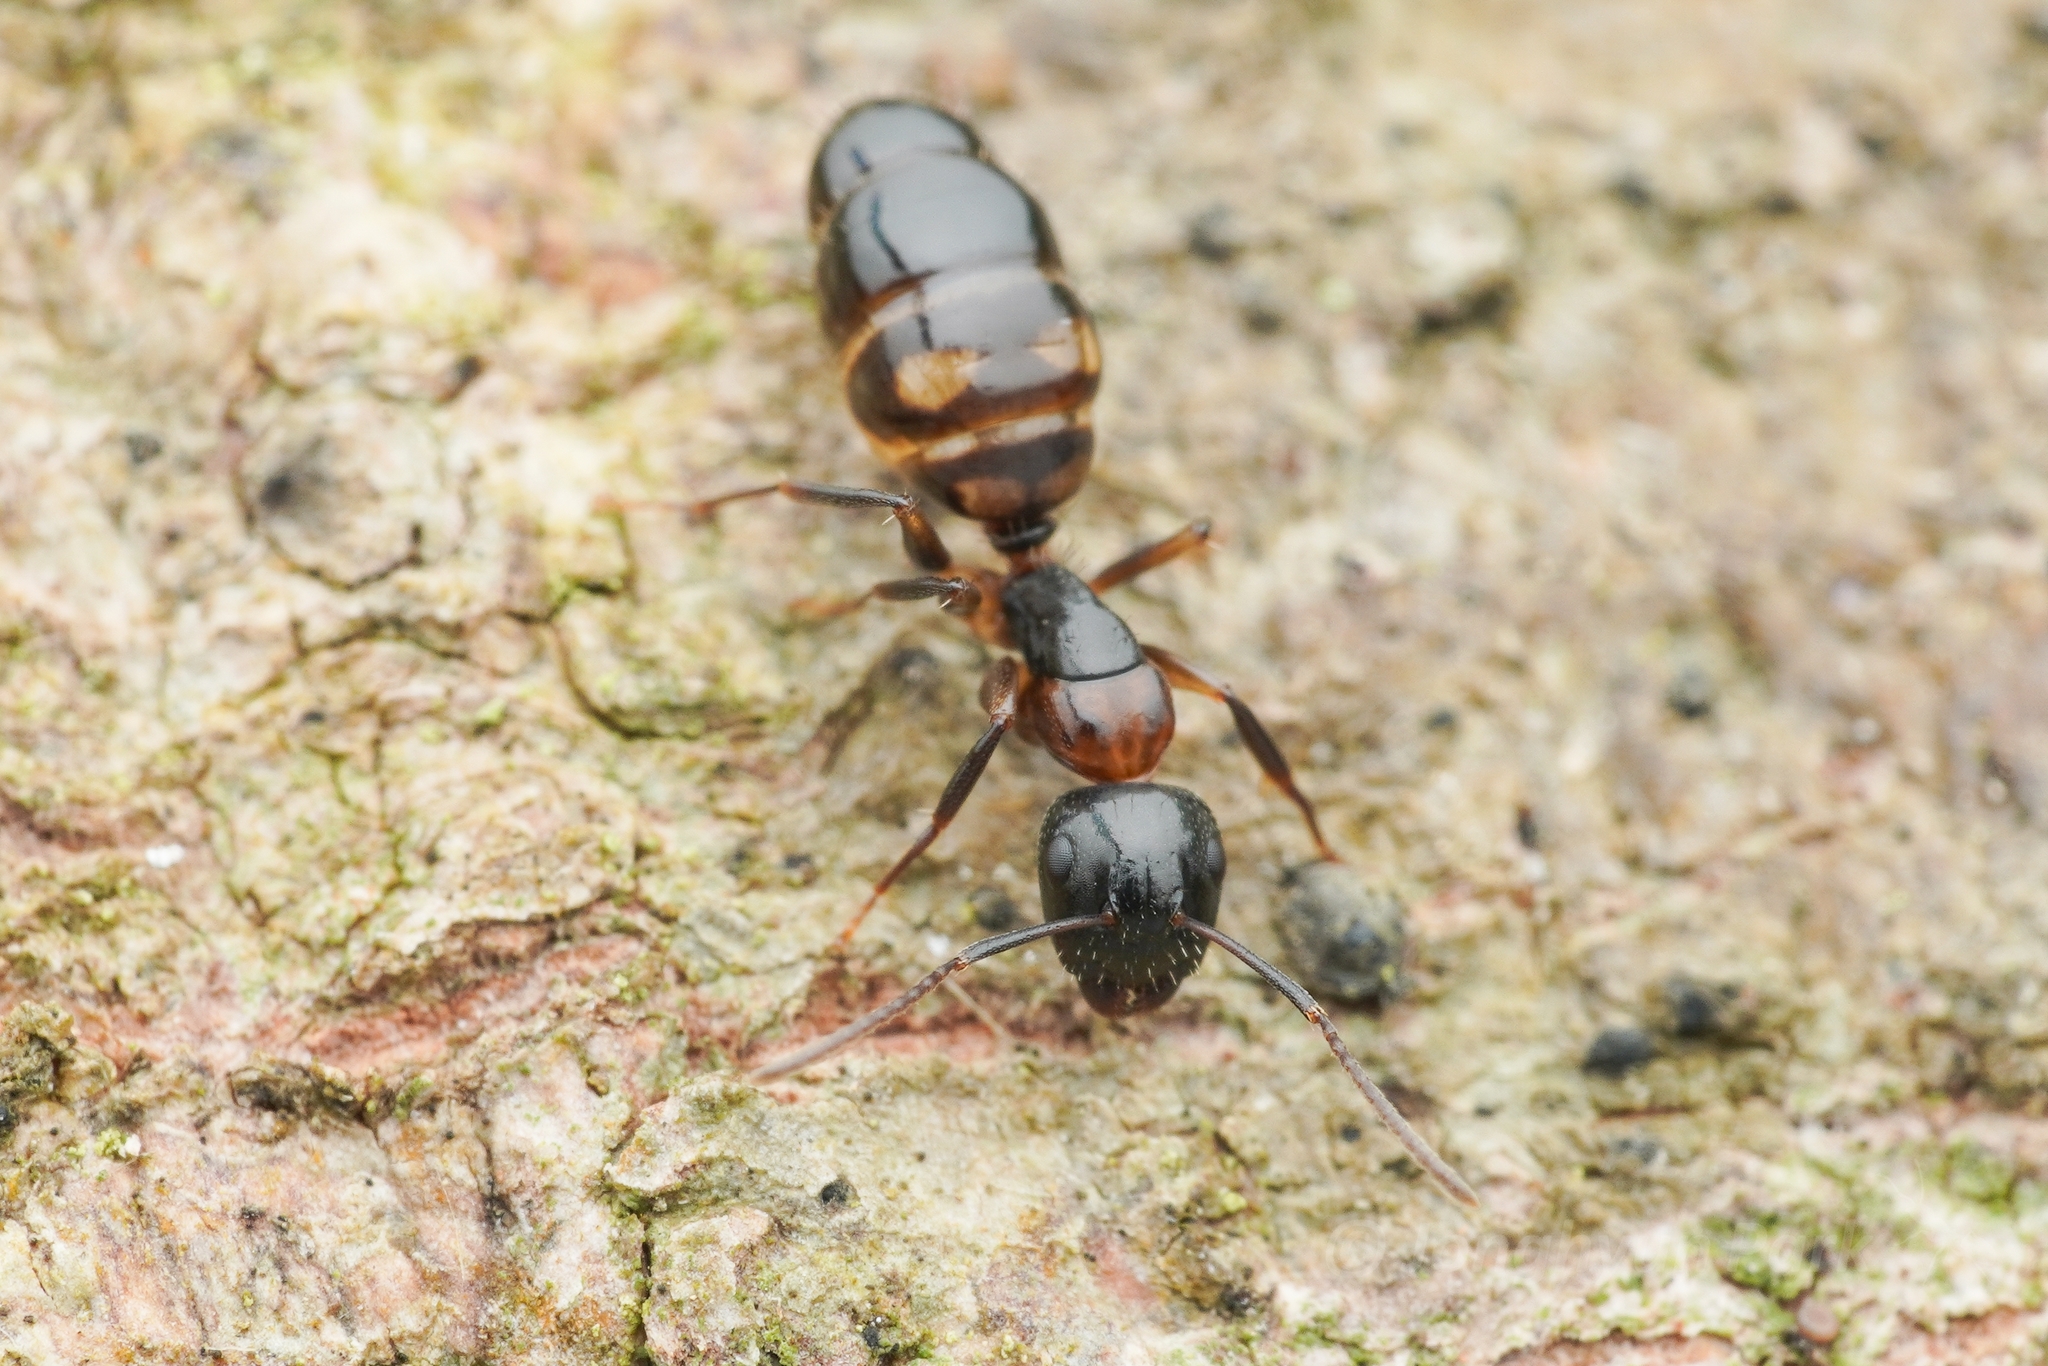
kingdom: Animalia
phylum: Arthropoda
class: Insecta
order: Hymenoptera
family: Formicidae
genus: Camponotus
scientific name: Camponotus nawai
